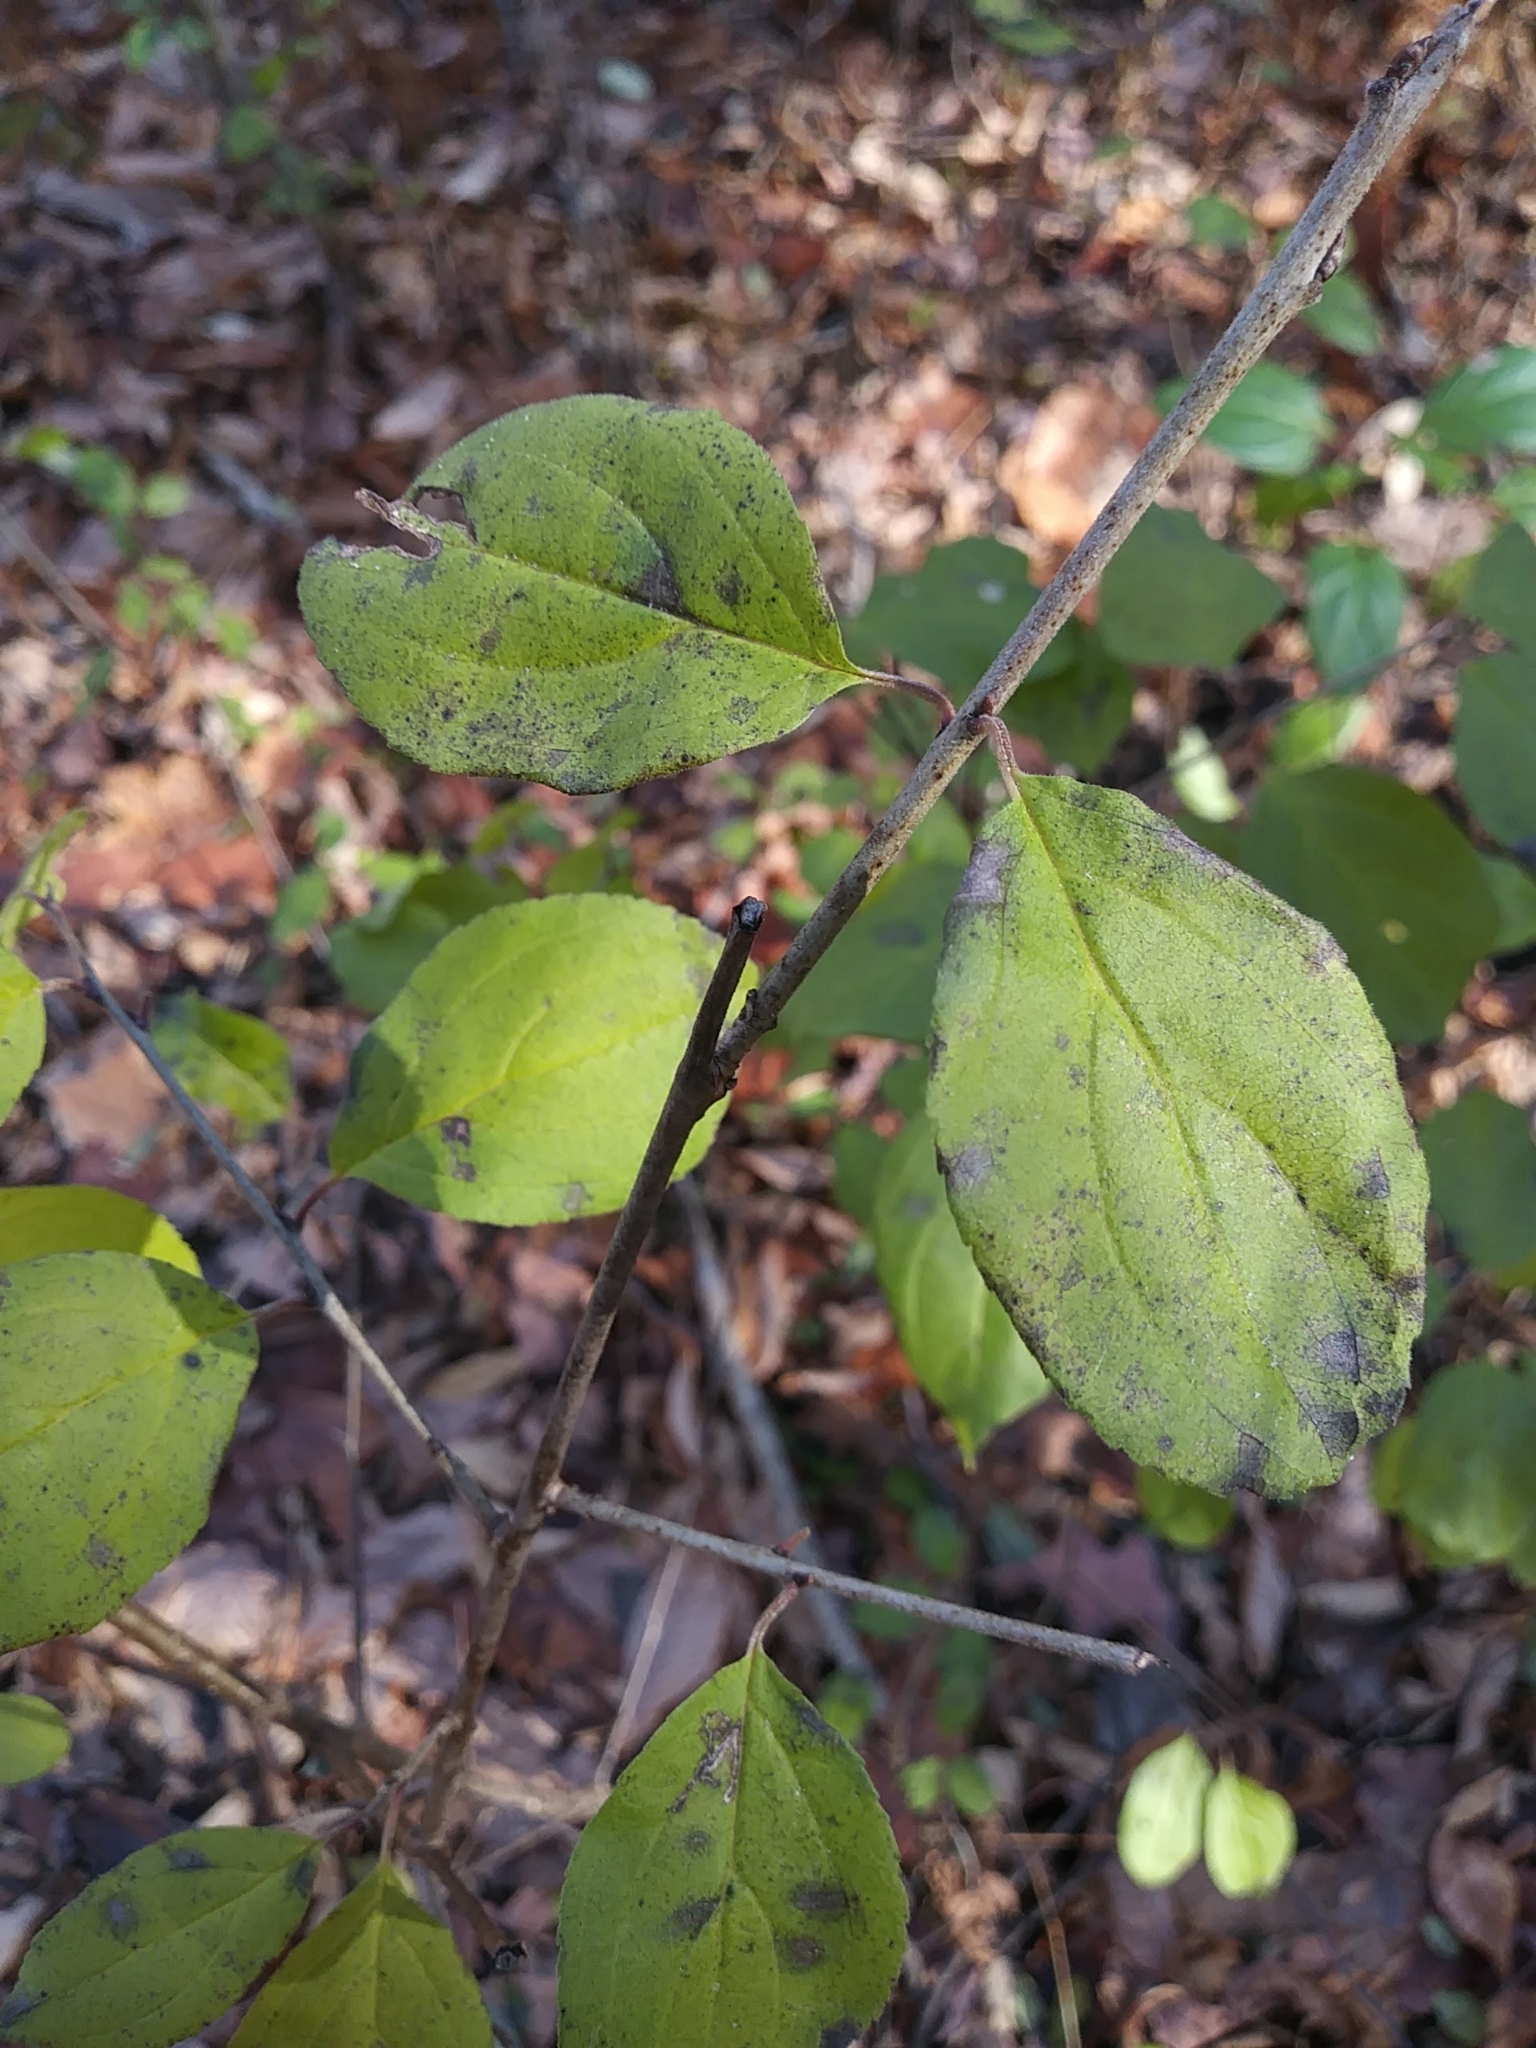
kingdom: Plantae
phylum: Tracheophyta
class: Magnoliopsida
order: Rosales
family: Rhamnaceae
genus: Rhamnus
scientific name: Rhamnus cathartica
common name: Common buckthorn
